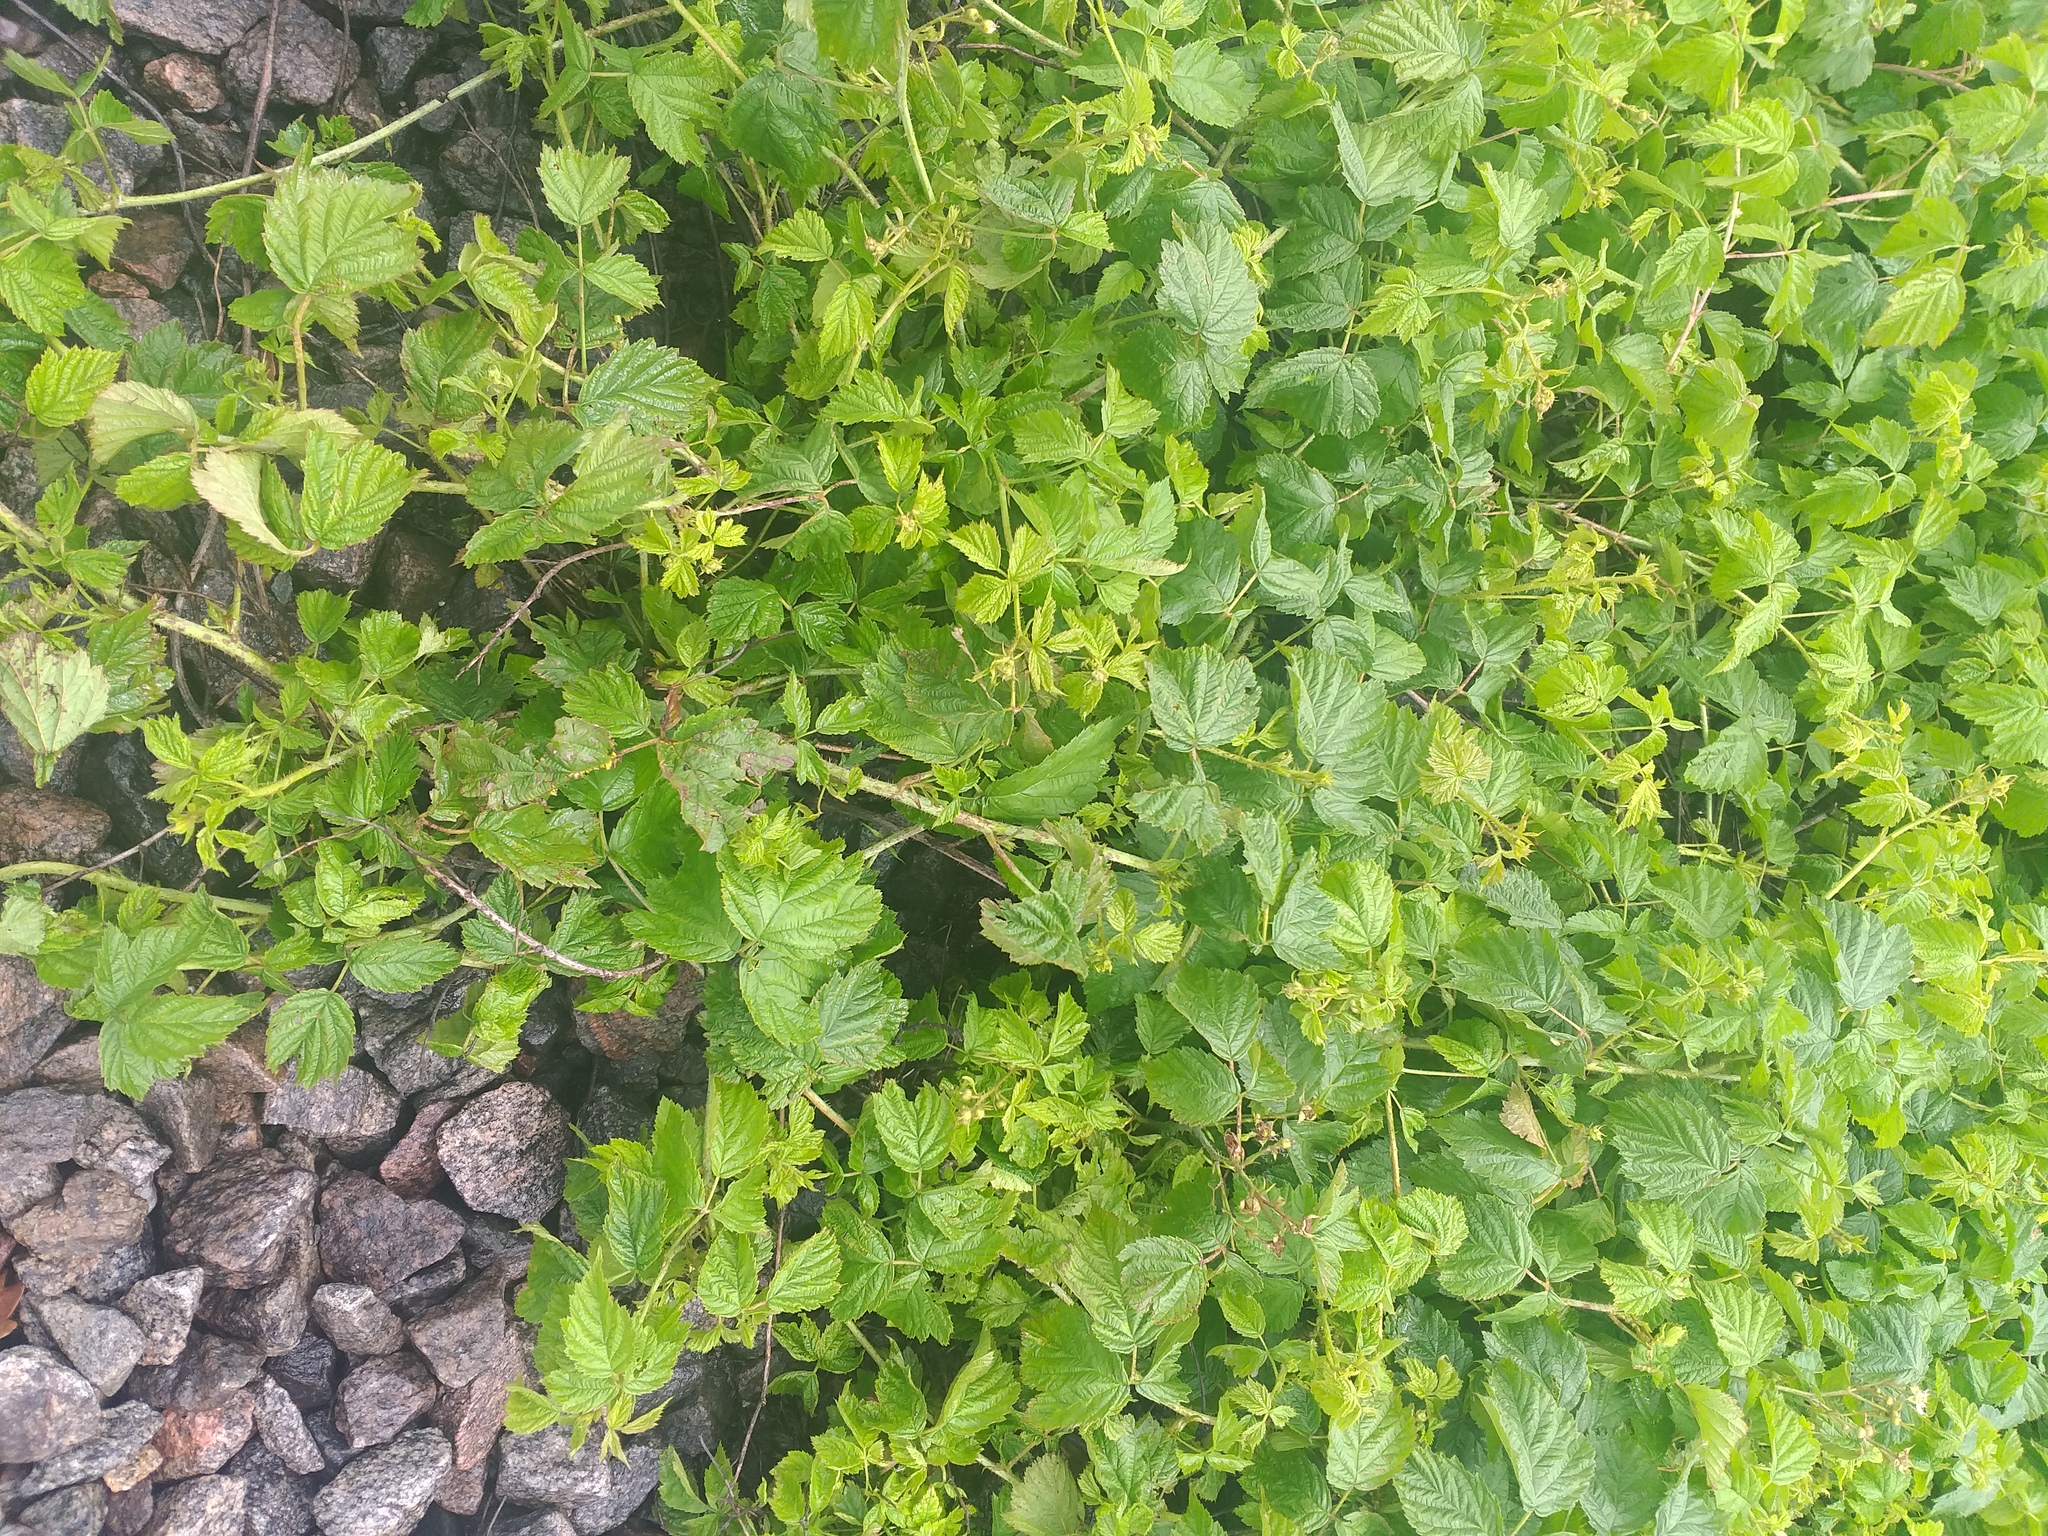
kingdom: Plantae
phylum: Tracheophyta
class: Magnoliopsida
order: Rosales
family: Rosaceae
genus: Rubus
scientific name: Rubus caesius
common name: Dewberry
